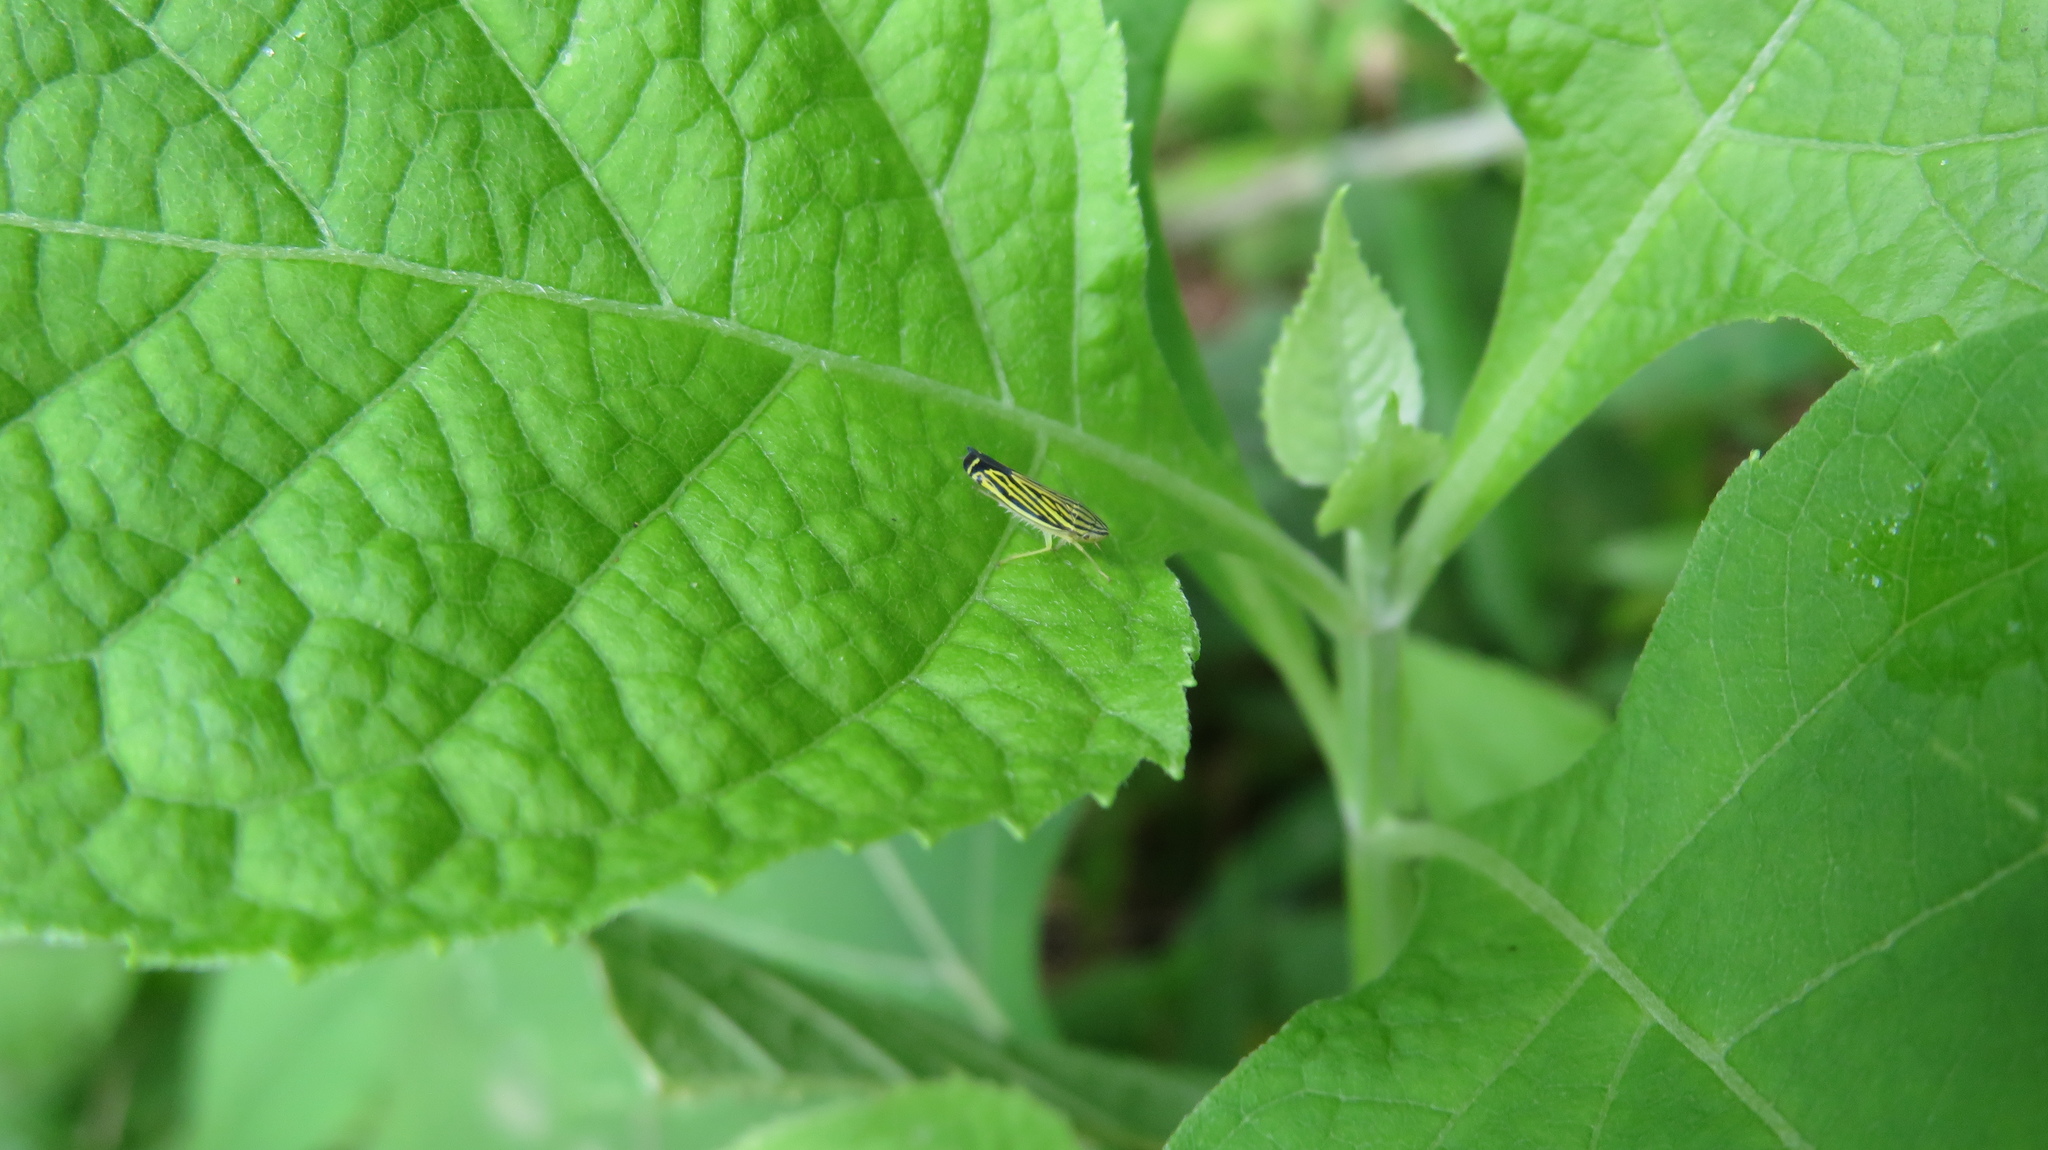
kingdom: Animalia
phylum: Arthropoda
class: Insecta
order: Hemiptera
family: Cicadellidae
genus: Sibovia
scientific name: Sibovia occatoria
